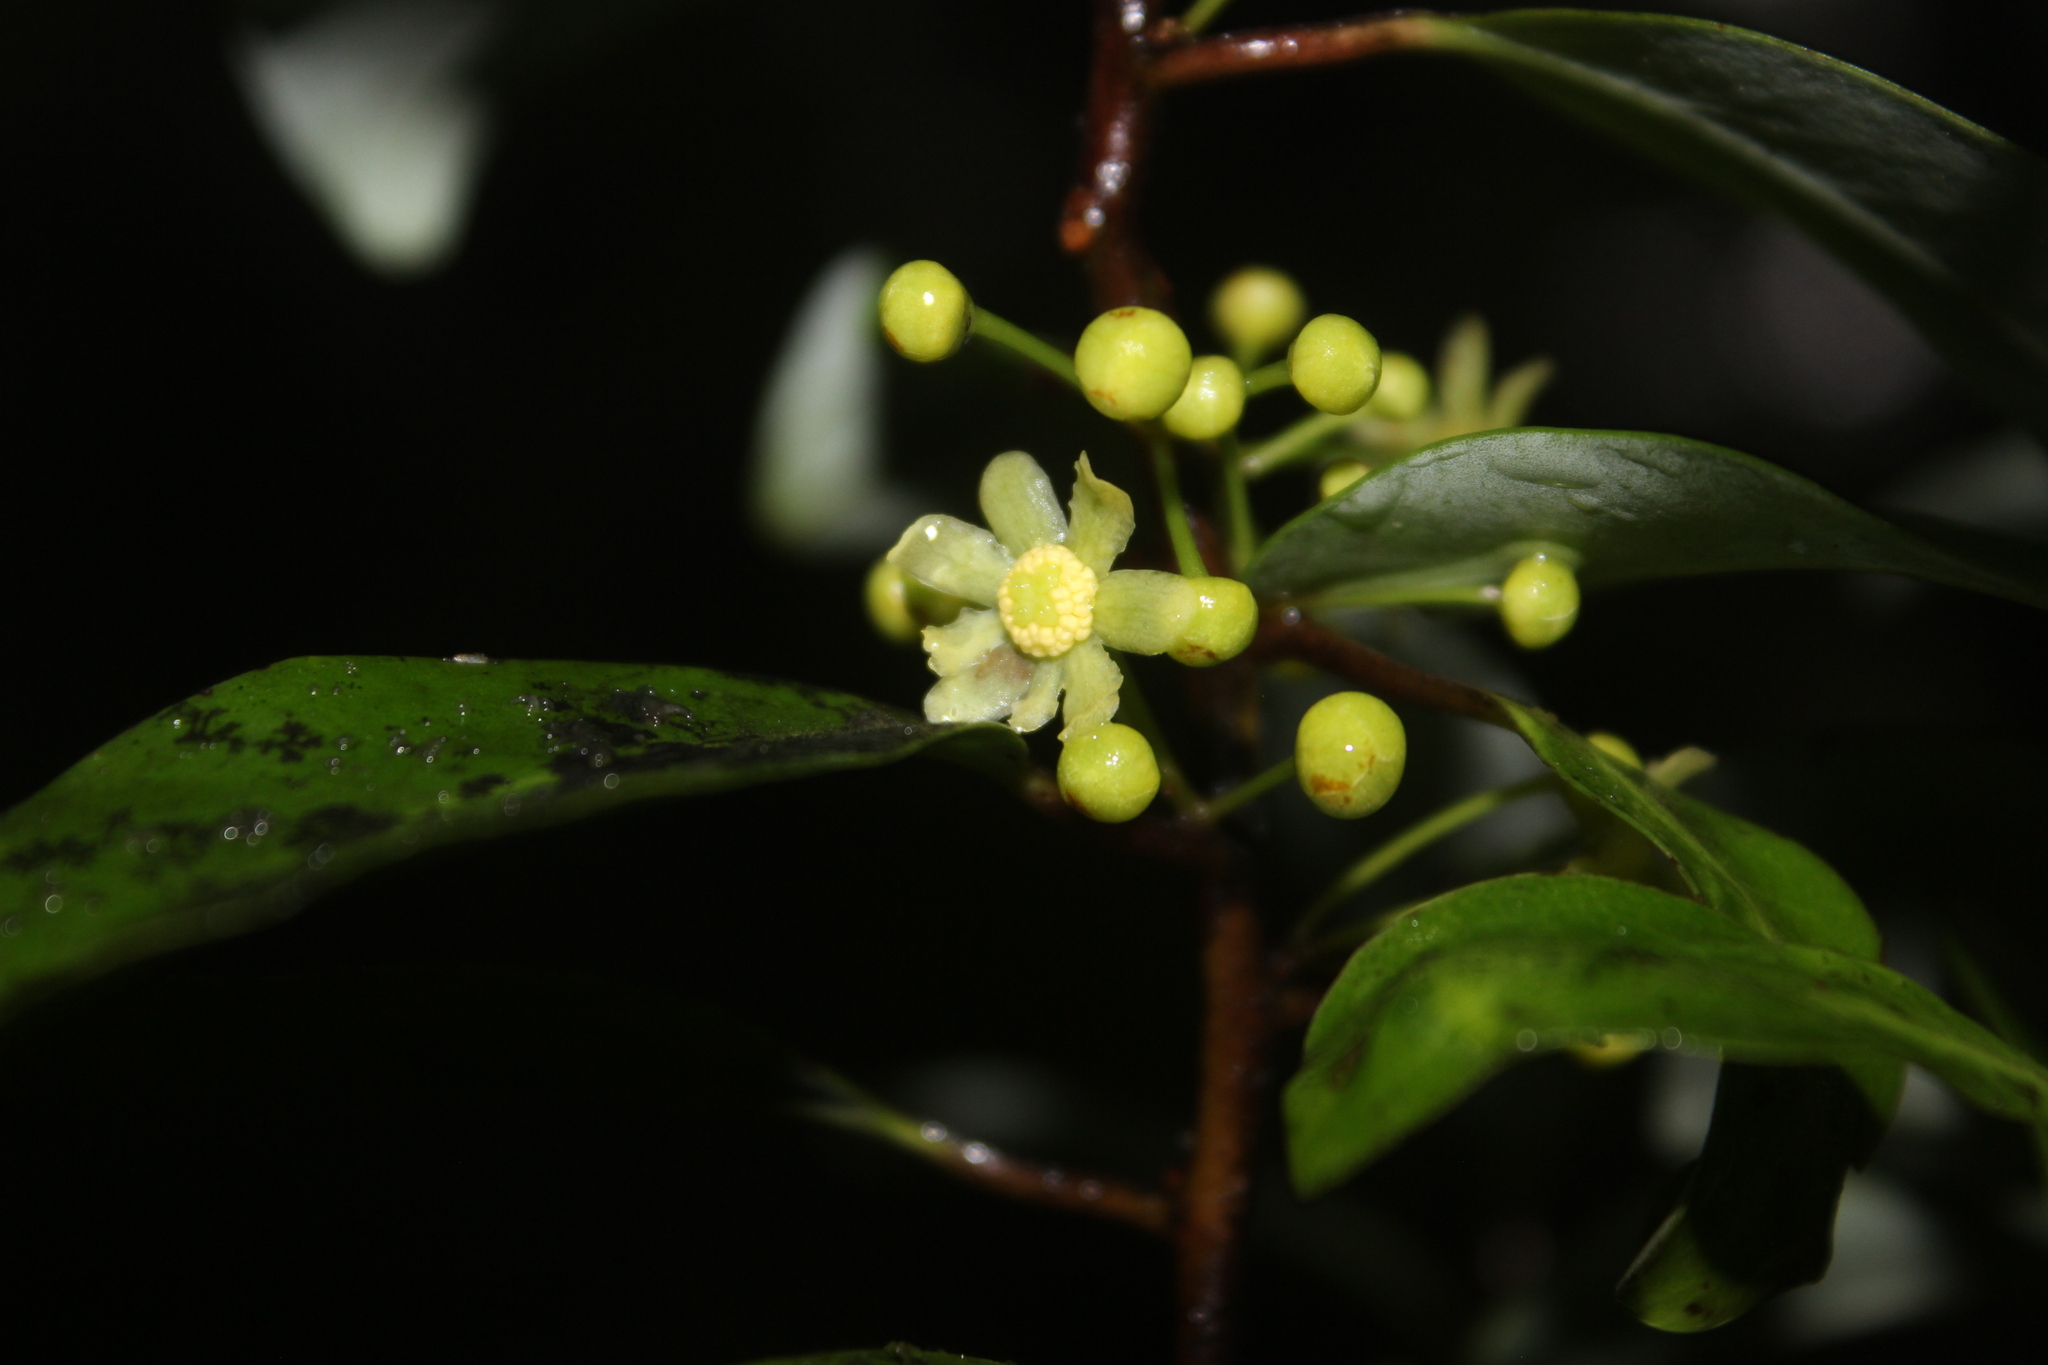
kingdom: Plantae
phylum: Tracheophyta
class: Magnoliopsida
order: Canellales
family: Winteraceae
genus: Pseudowintera
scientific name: Pseudowintera axillaris
